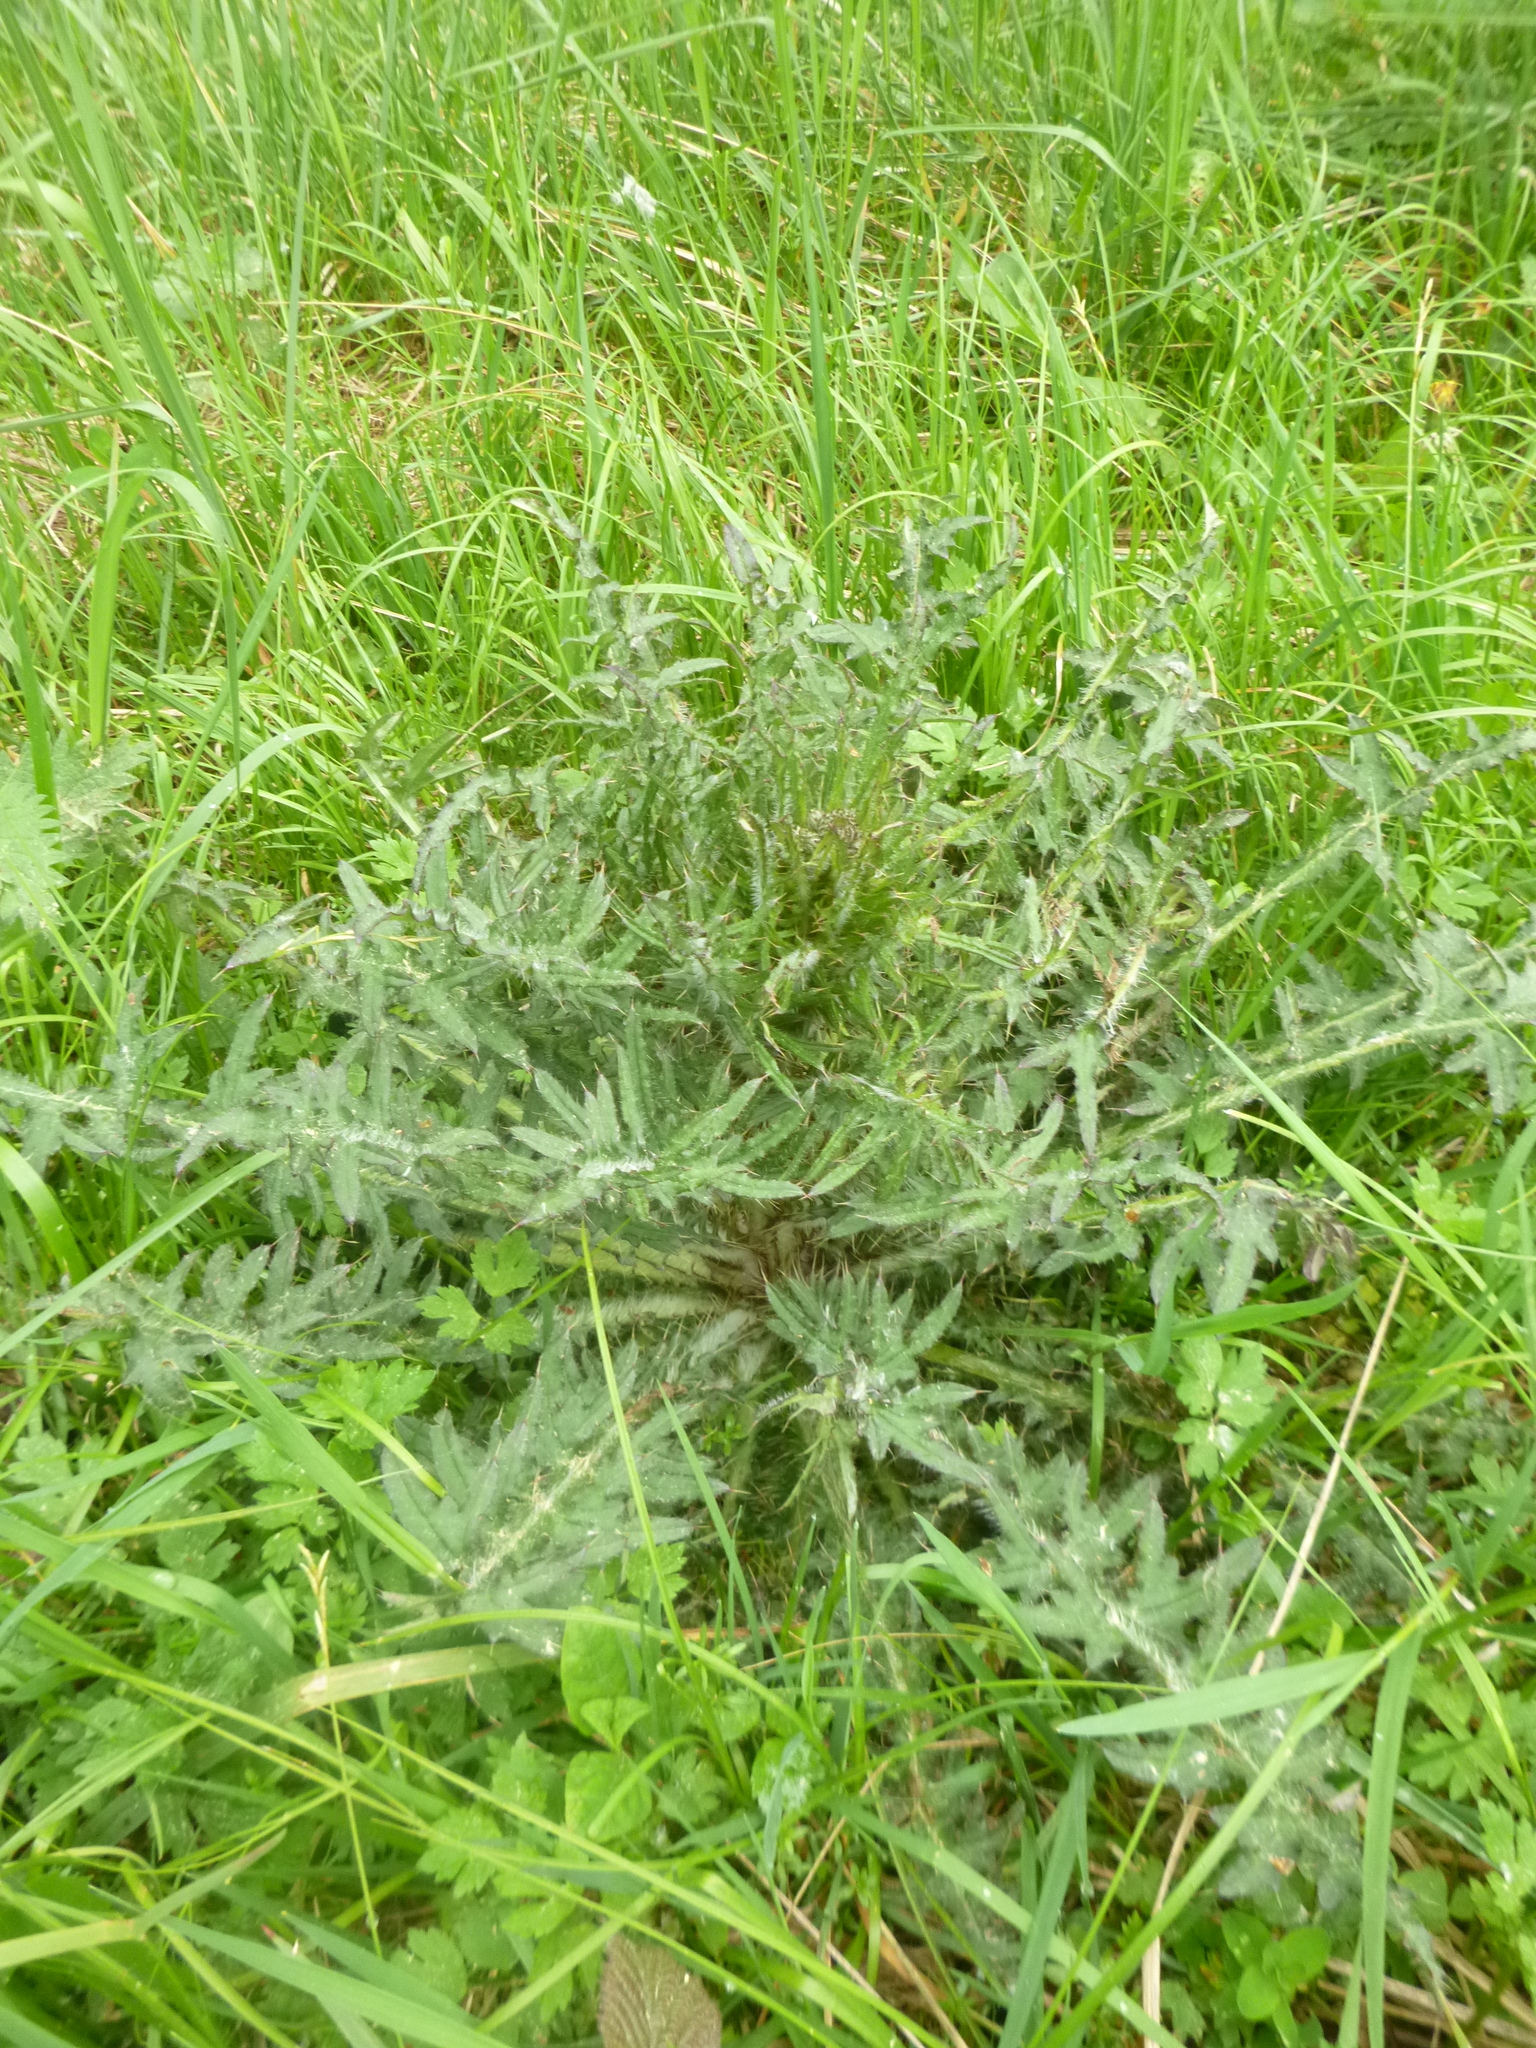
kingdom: Plantae
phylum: Tracheophyta
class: Magnoliopsida
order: Asterales
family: Asteraceae
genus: Cirsium
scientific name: Cirsium palustre
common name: Marsh thistle
